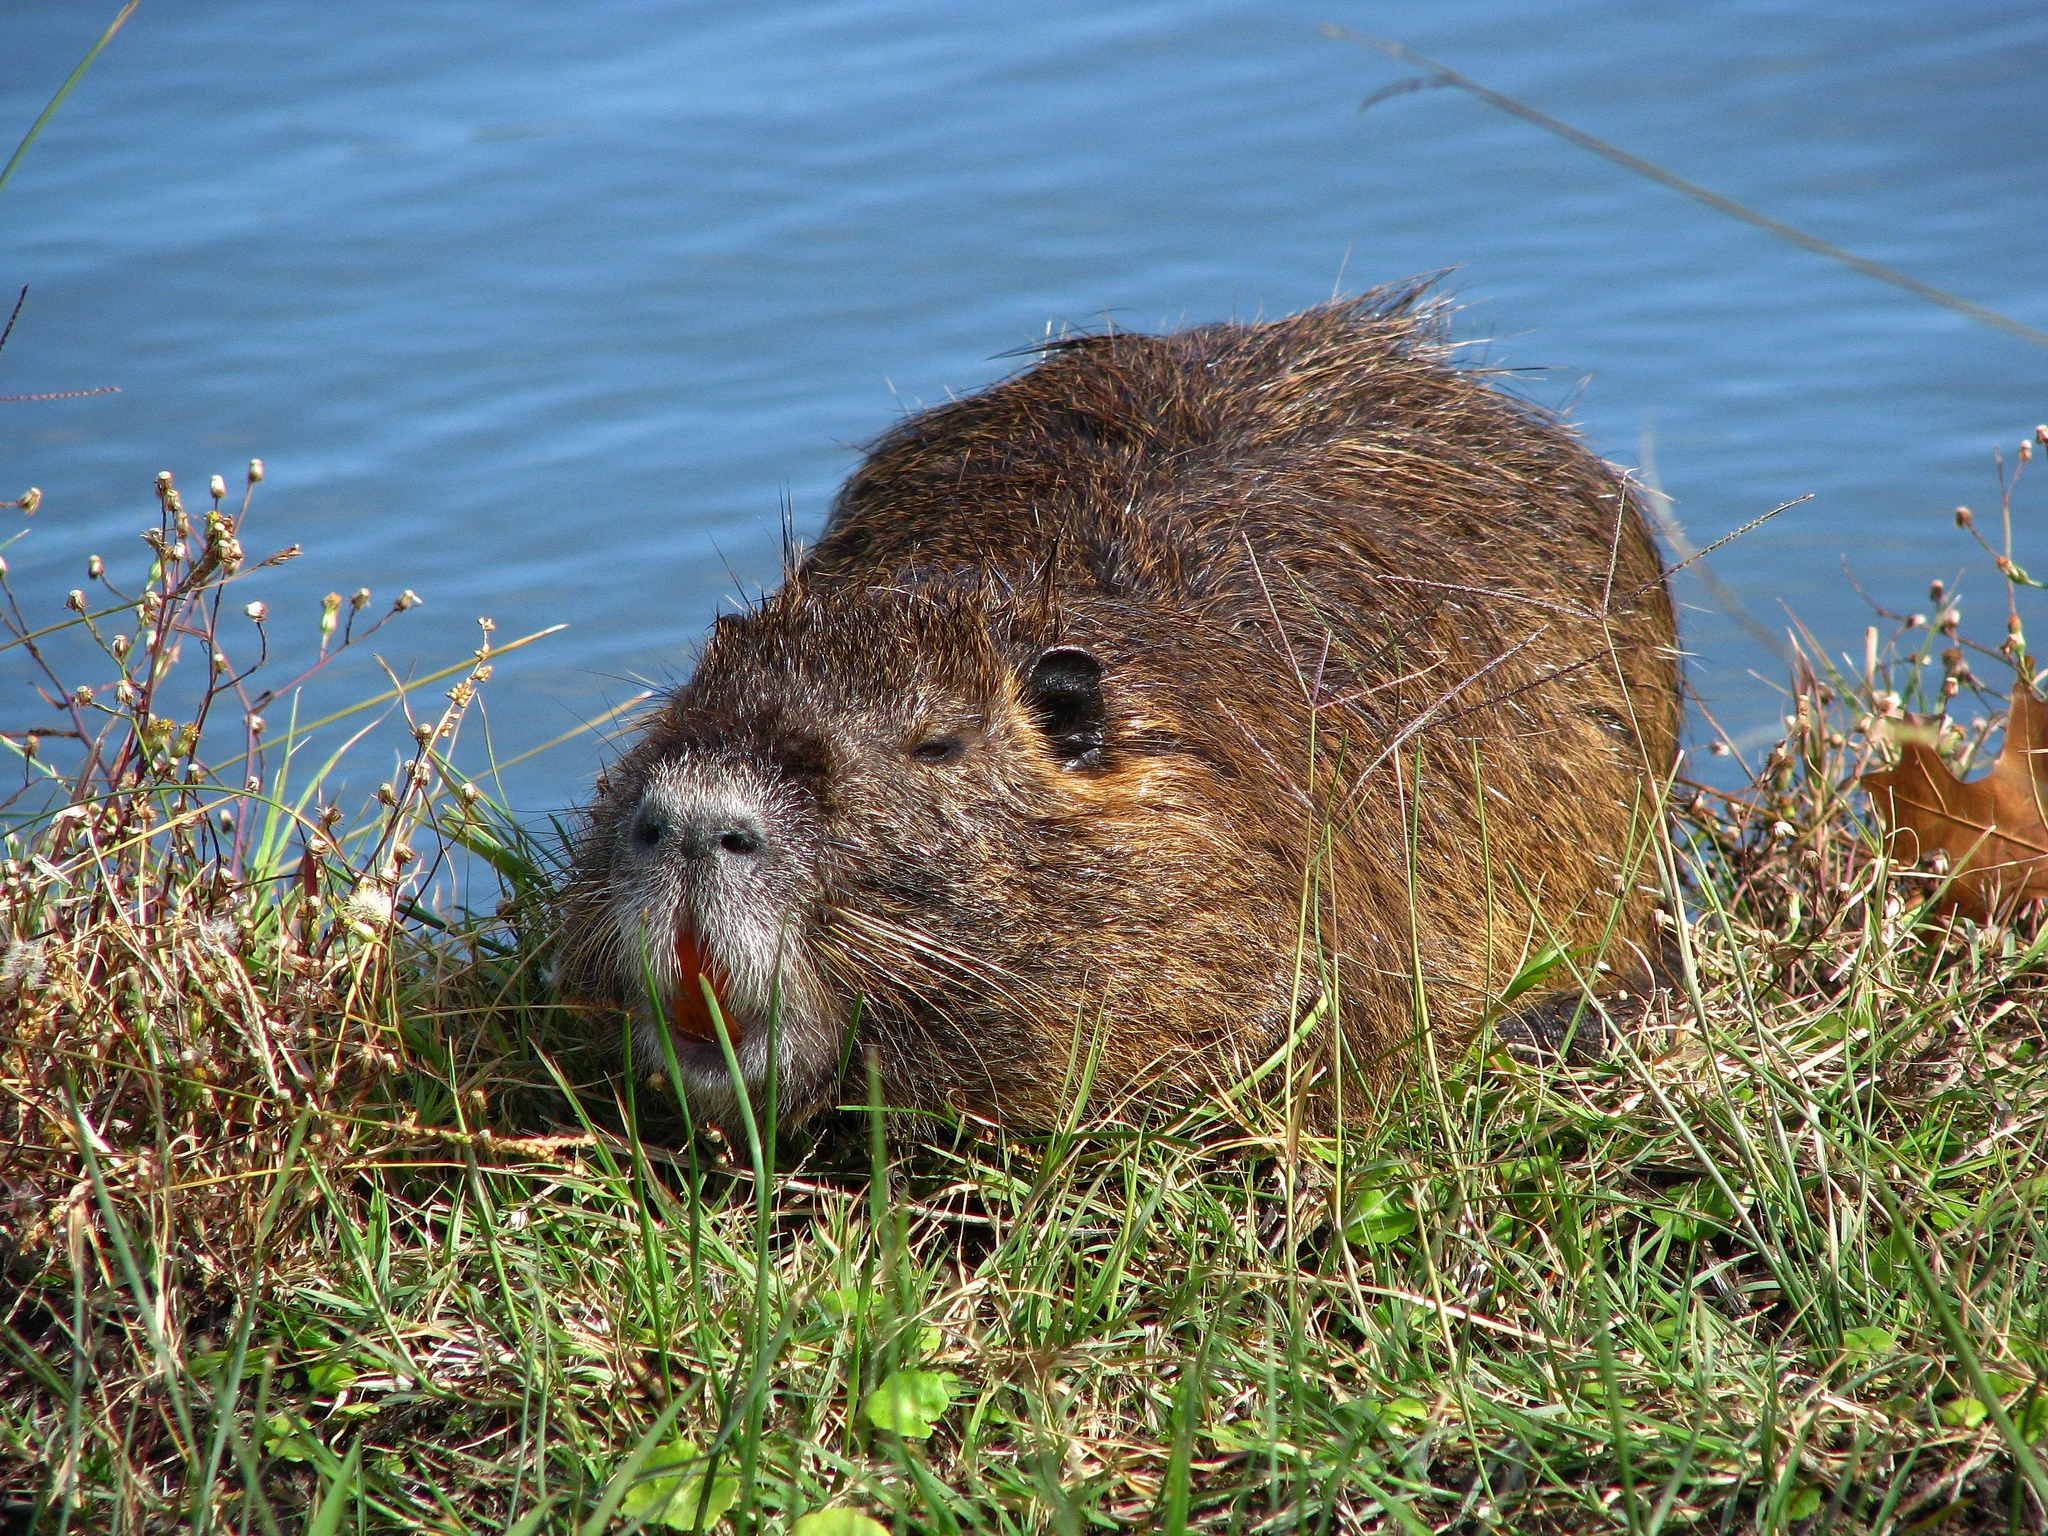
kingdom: Animalia
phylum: Chordata
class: Mammalia
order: Rodentia
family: Myocastoridae
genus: Myocastor
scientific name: Myocastor coypus
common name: Coypu
